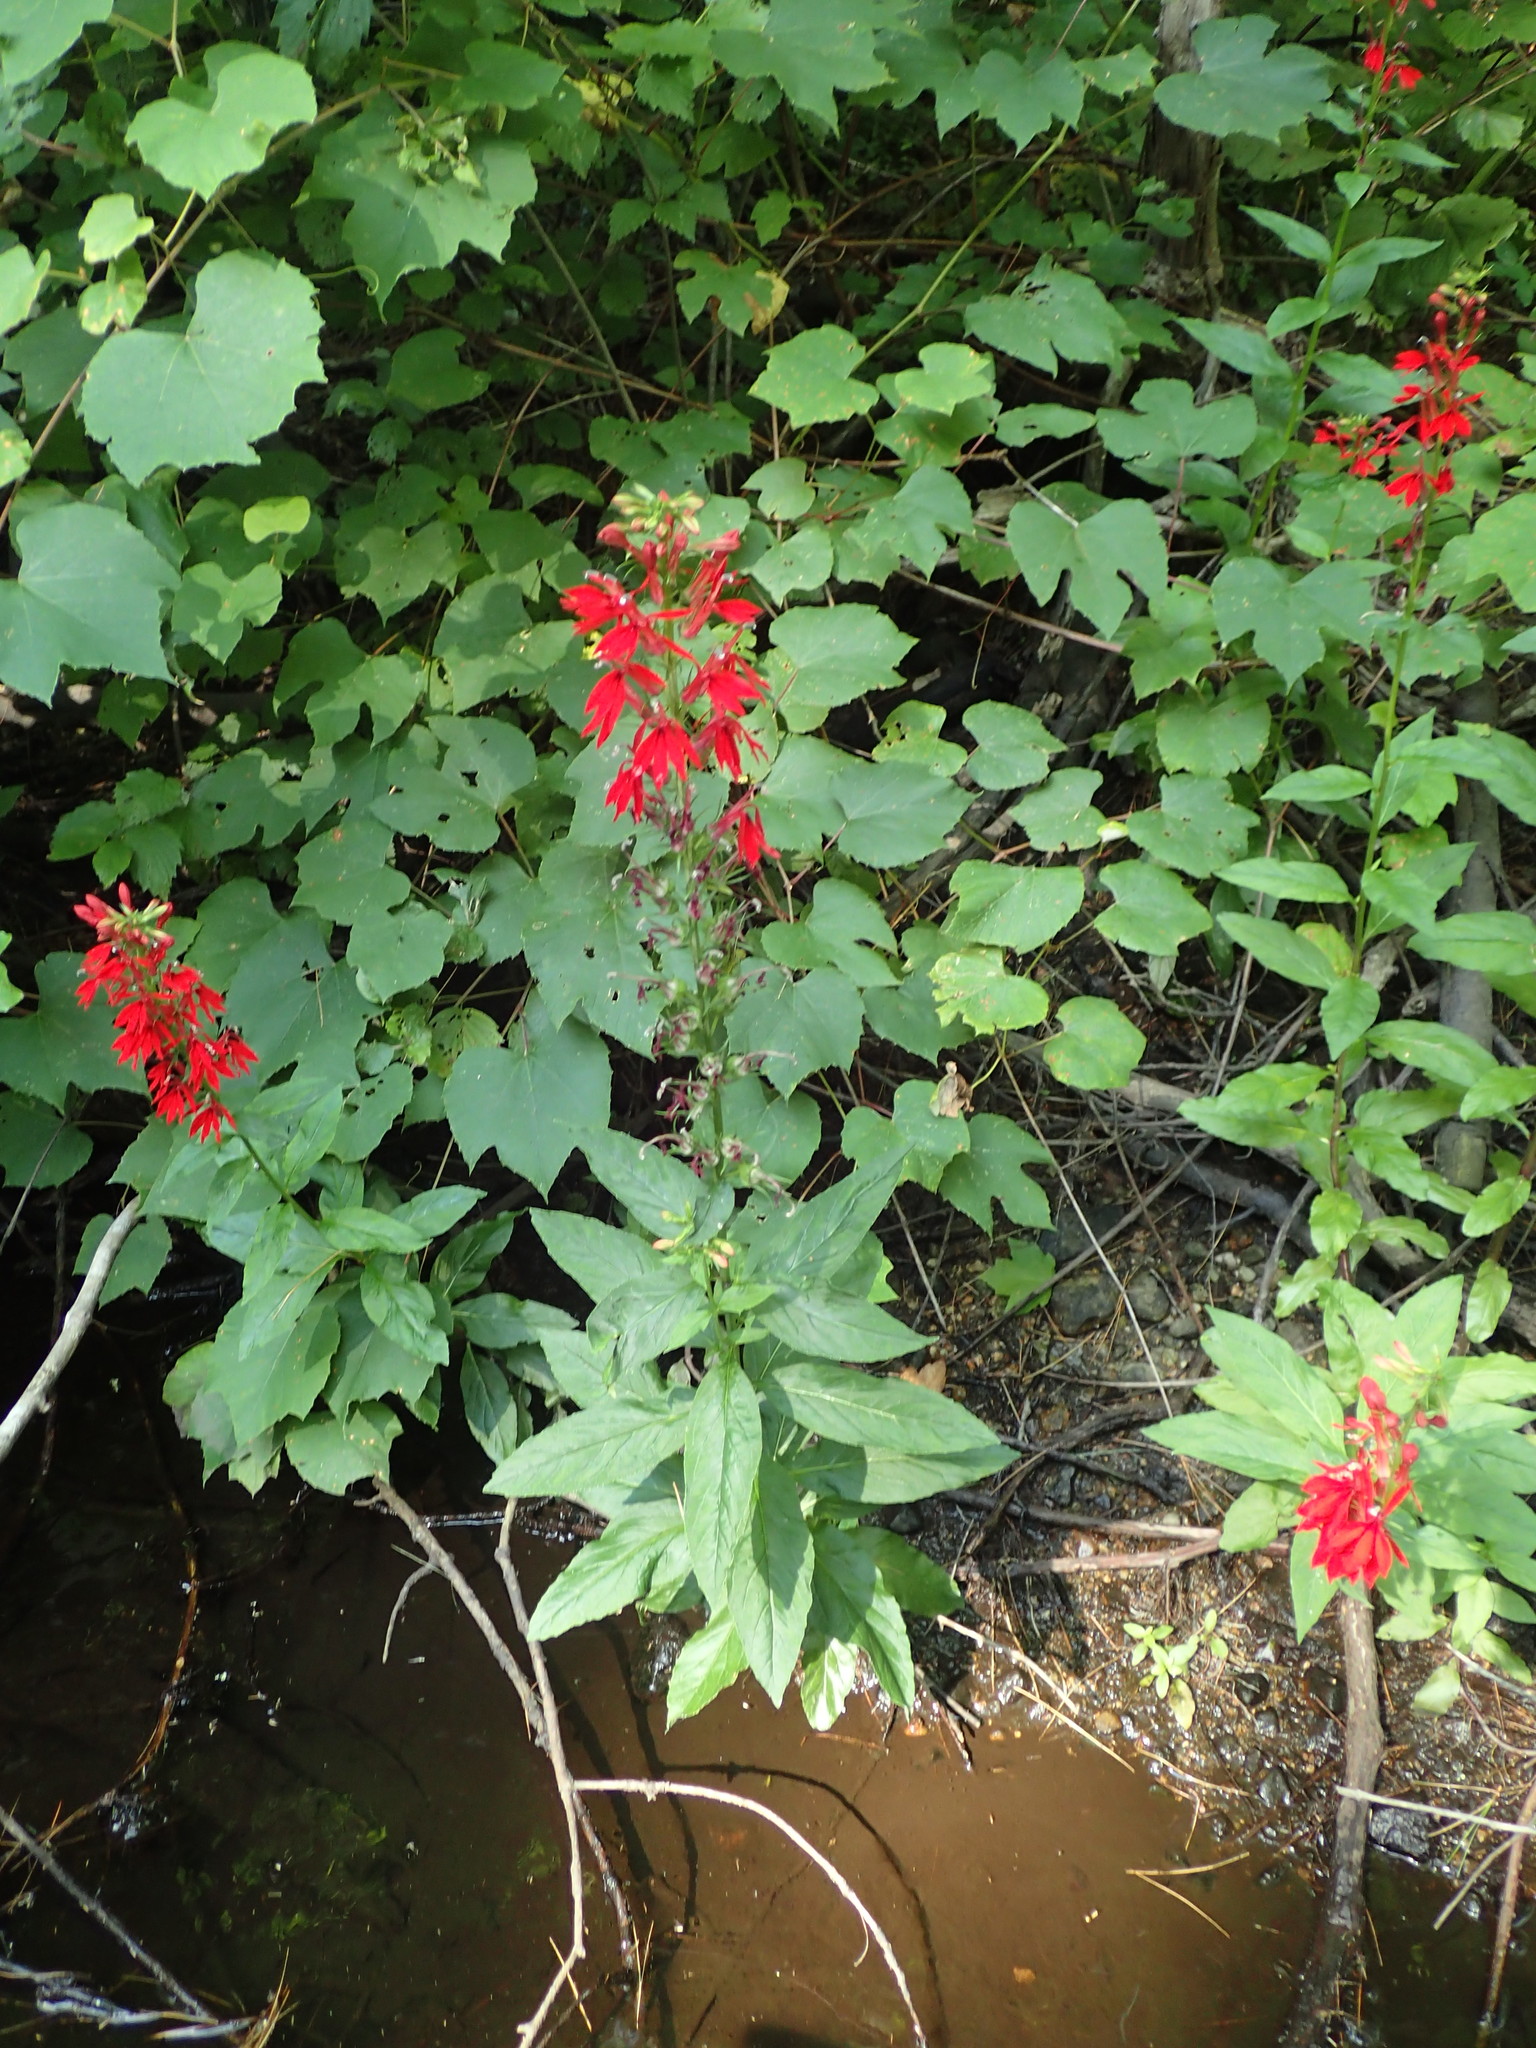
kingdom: Plantae
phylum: Tracheophyta
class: Magnoliopsida
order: Asterales
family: Campanulaceae
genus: Lobelia
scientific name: Lobelia cardinalis
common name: Cardinal flower
